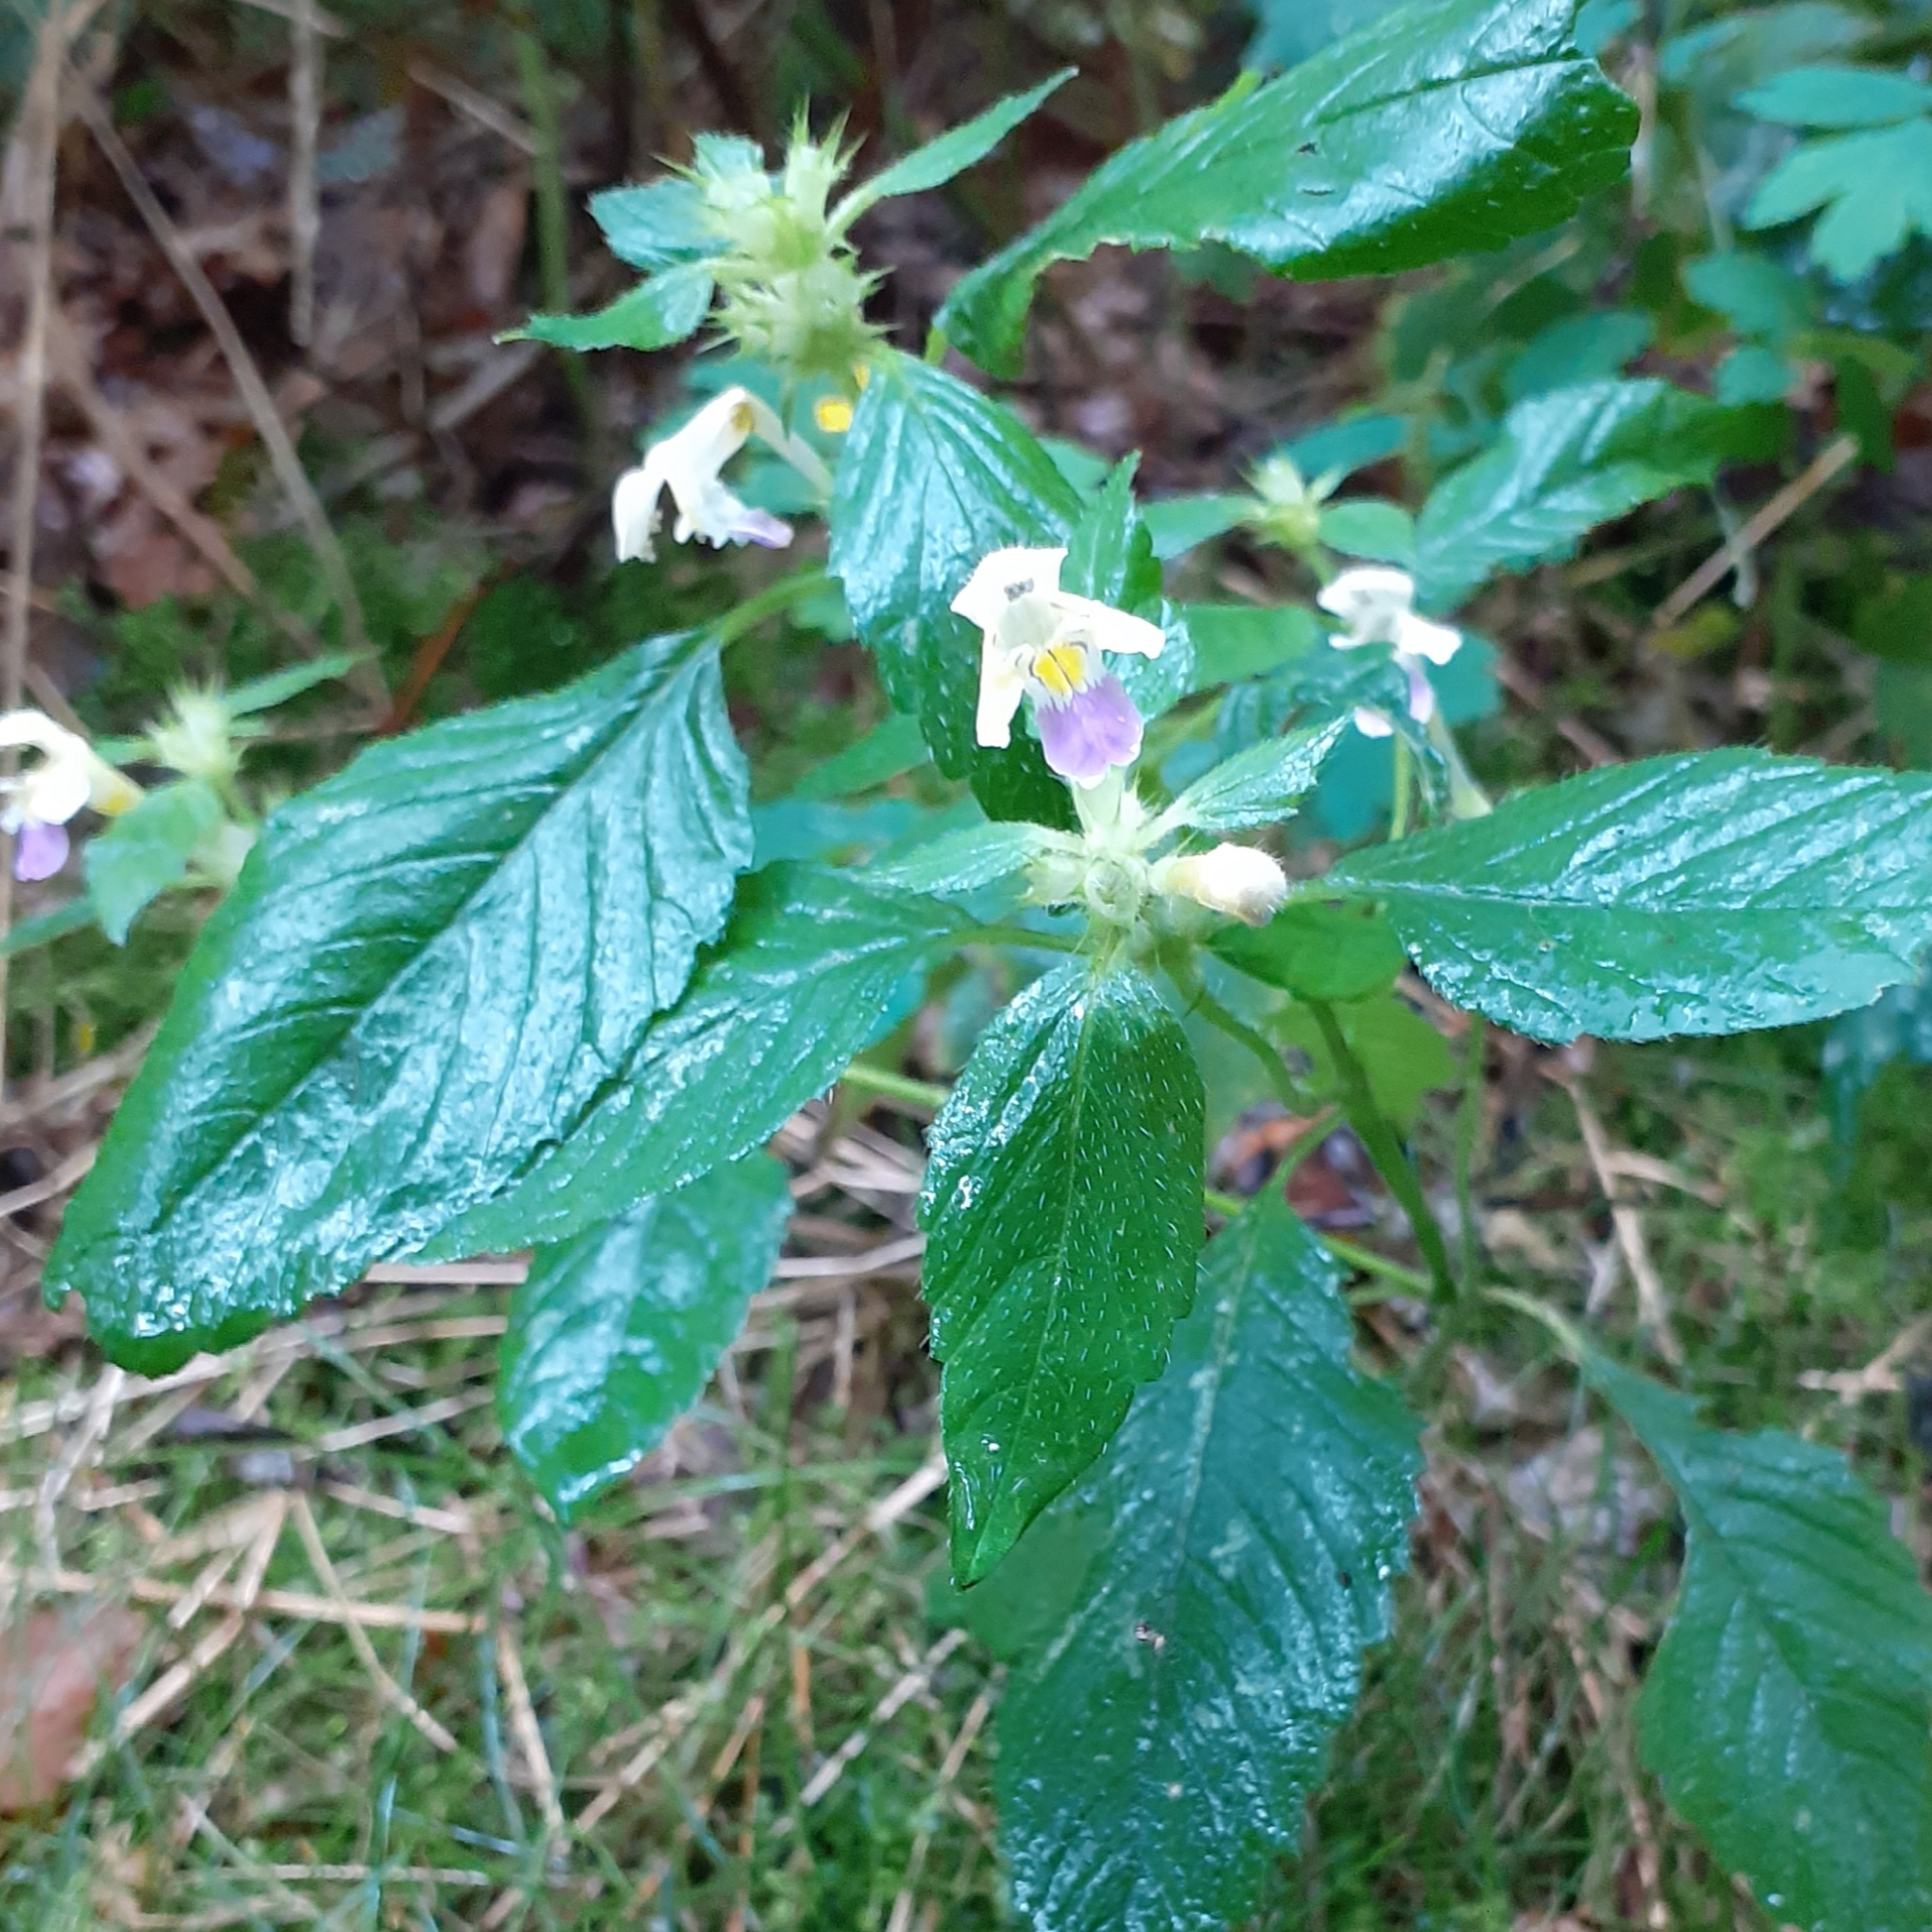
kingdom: Plantae
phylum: Tracheophyta
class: Magnoliopsida
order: Lamiales
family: Lamiaceae
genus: Galeopsis
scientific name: Galeopsis speciosa
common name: Large-flowered hemp-nettle
